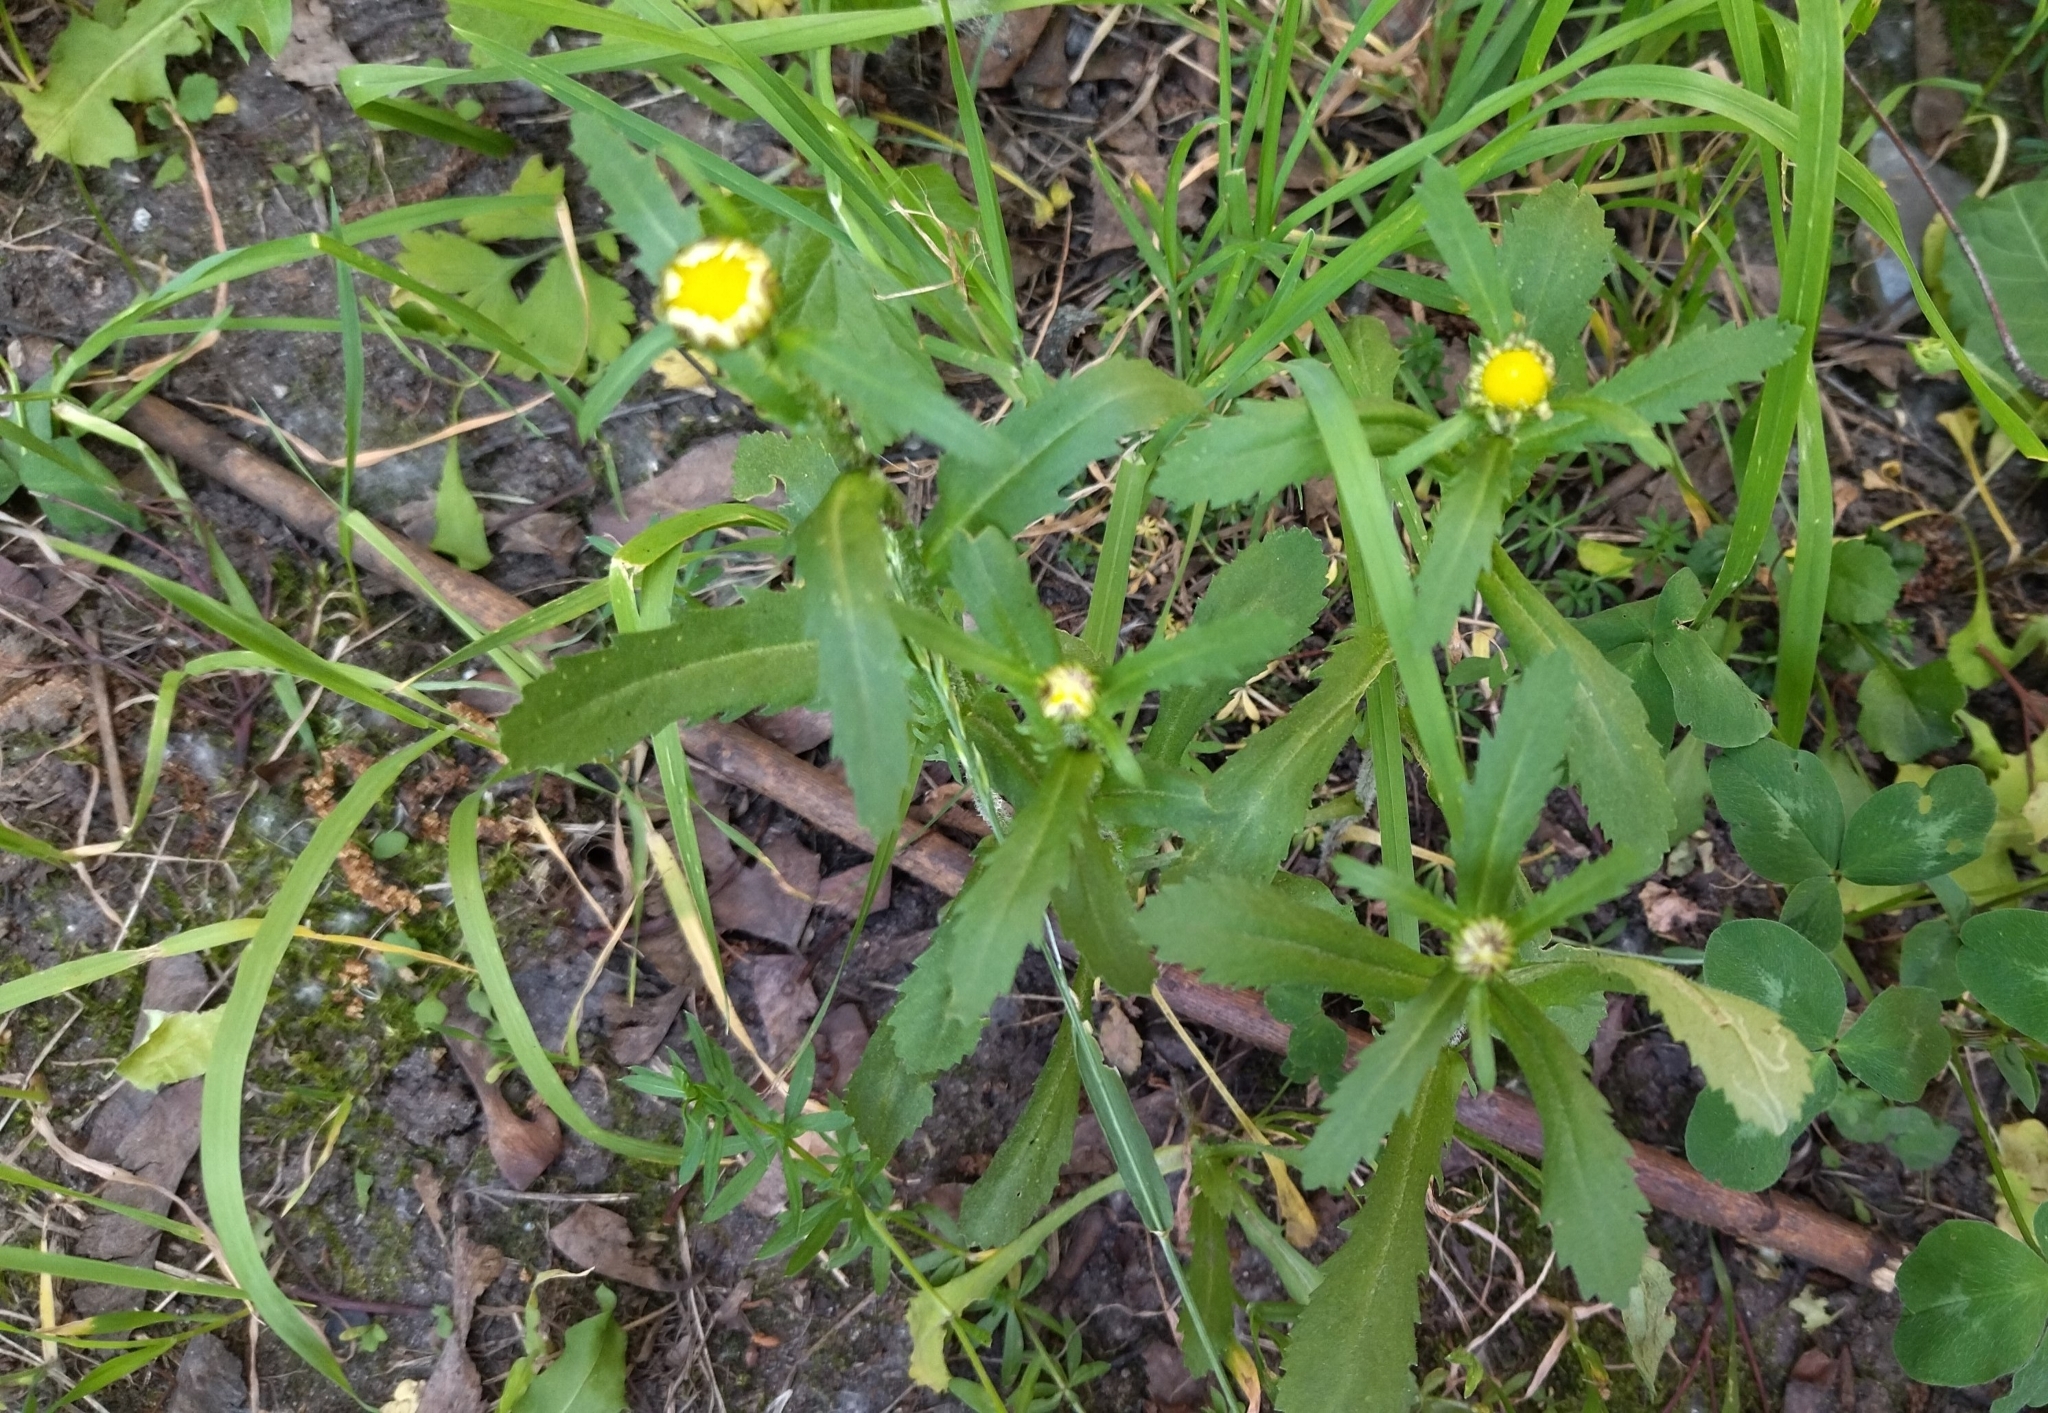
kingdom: Plantae
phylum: Tracheophyta
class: Magnoliopsida
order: Asterales
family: Asteraceae
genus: Leucanthemum
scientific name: Leucanthemum vulgare
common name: Oxeye daisy
